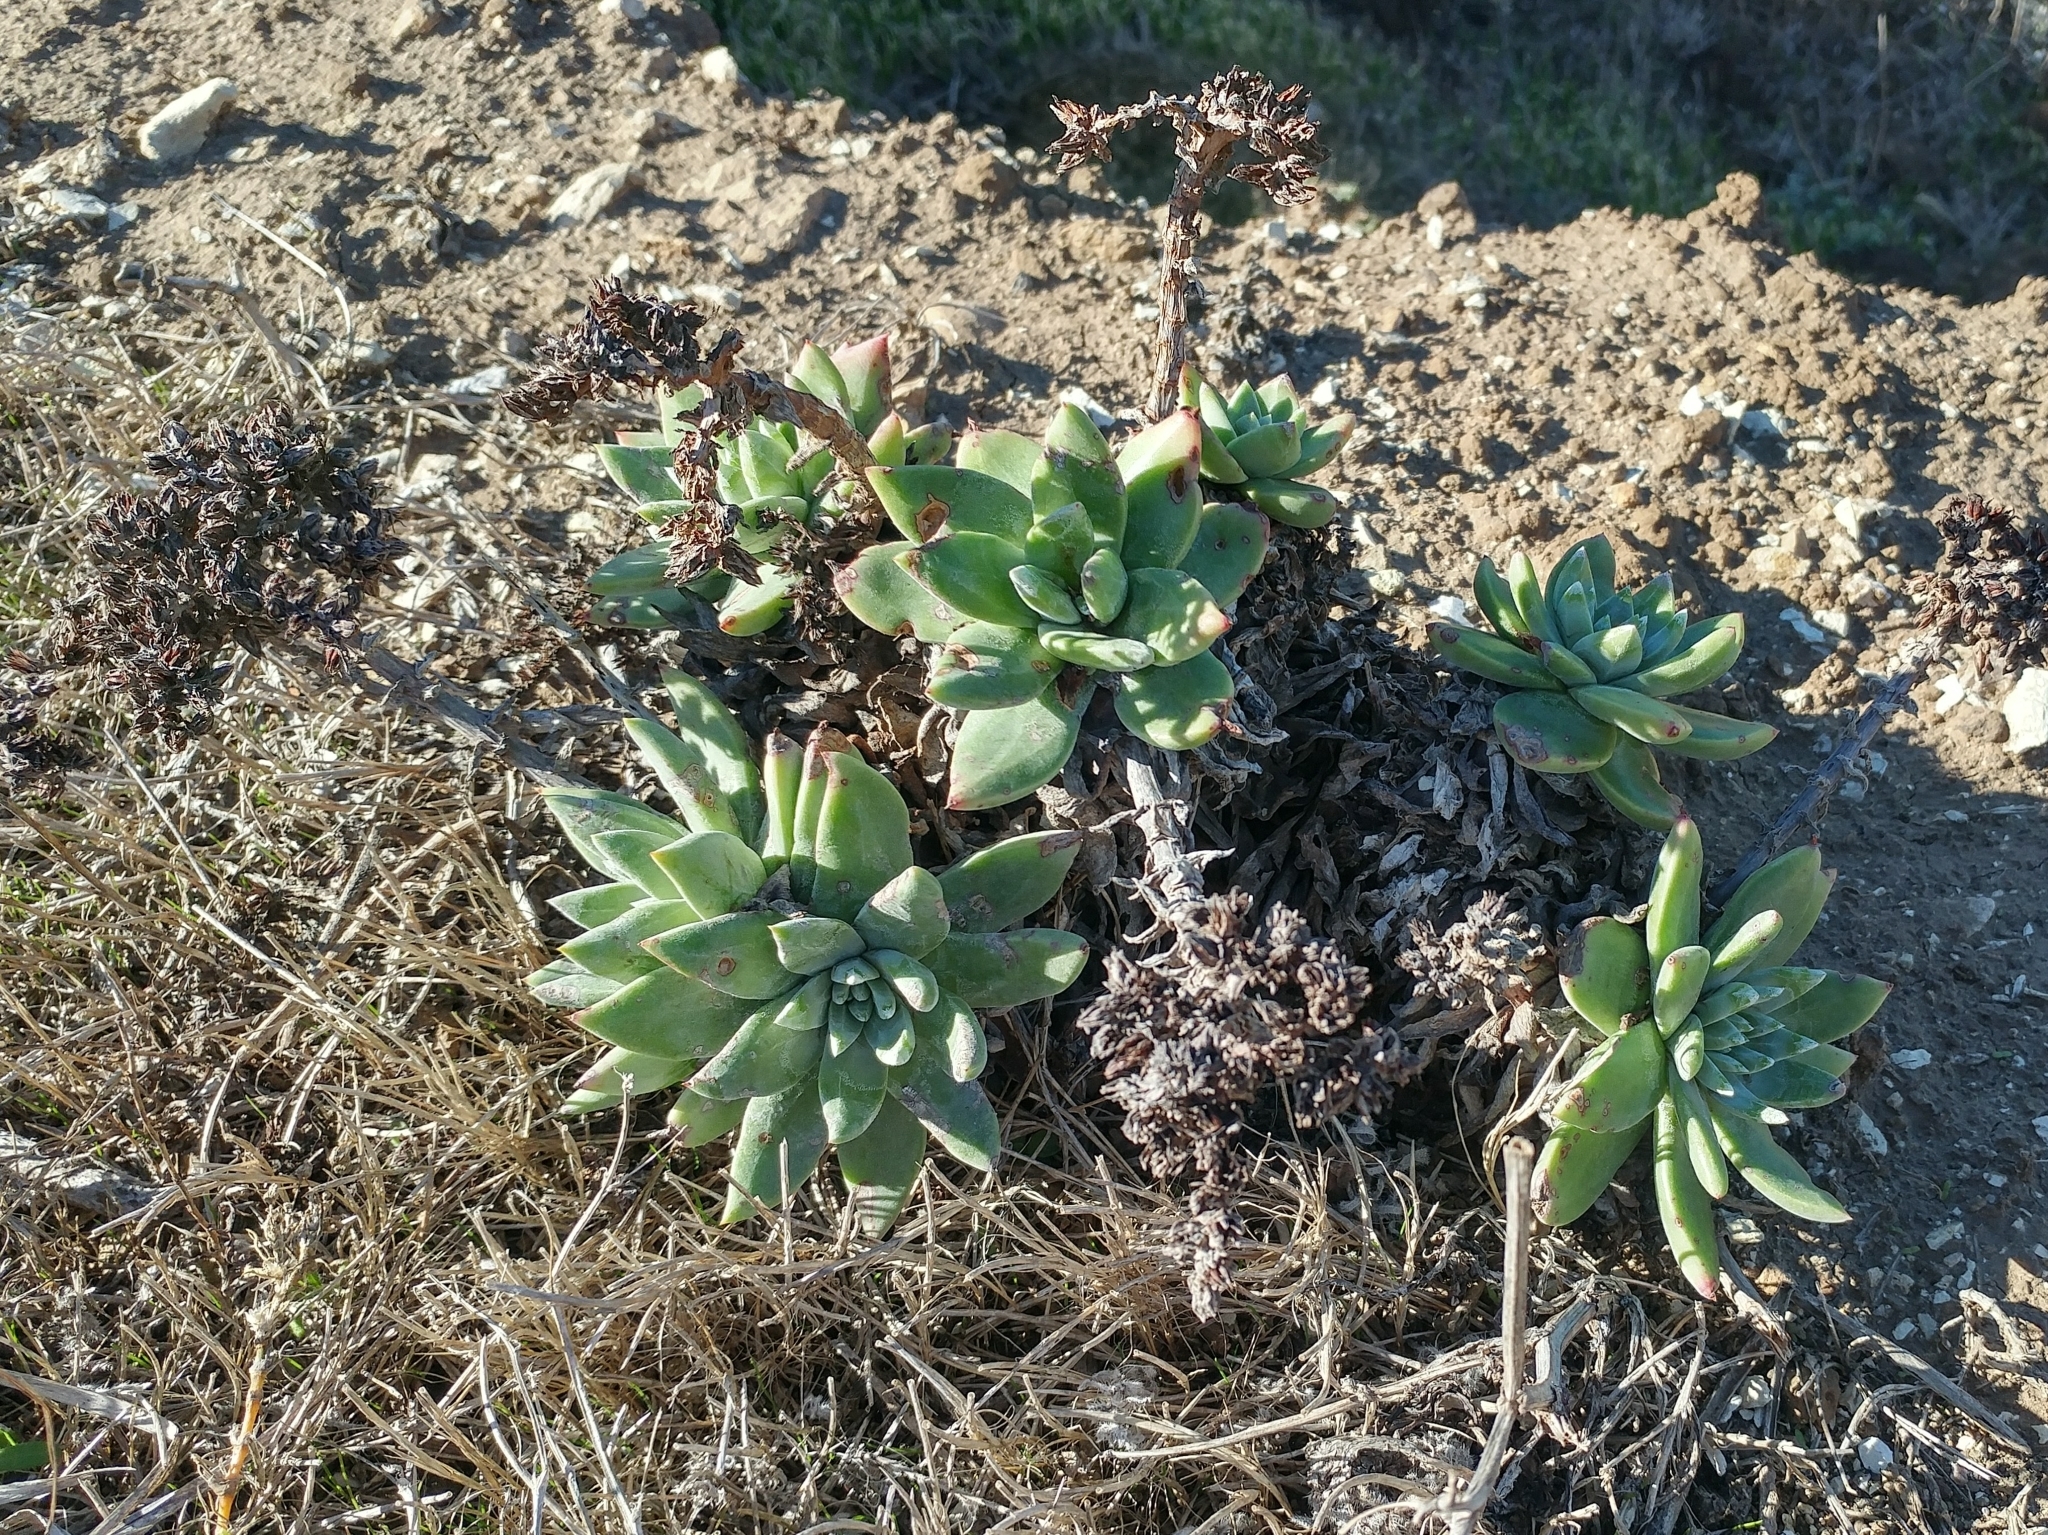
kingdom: Plantae
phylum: Tracheophyta
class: Magnoliopsida
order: Saxifragales
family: Crassulaceae
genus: Dudleya
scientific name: Dudleya greenei
